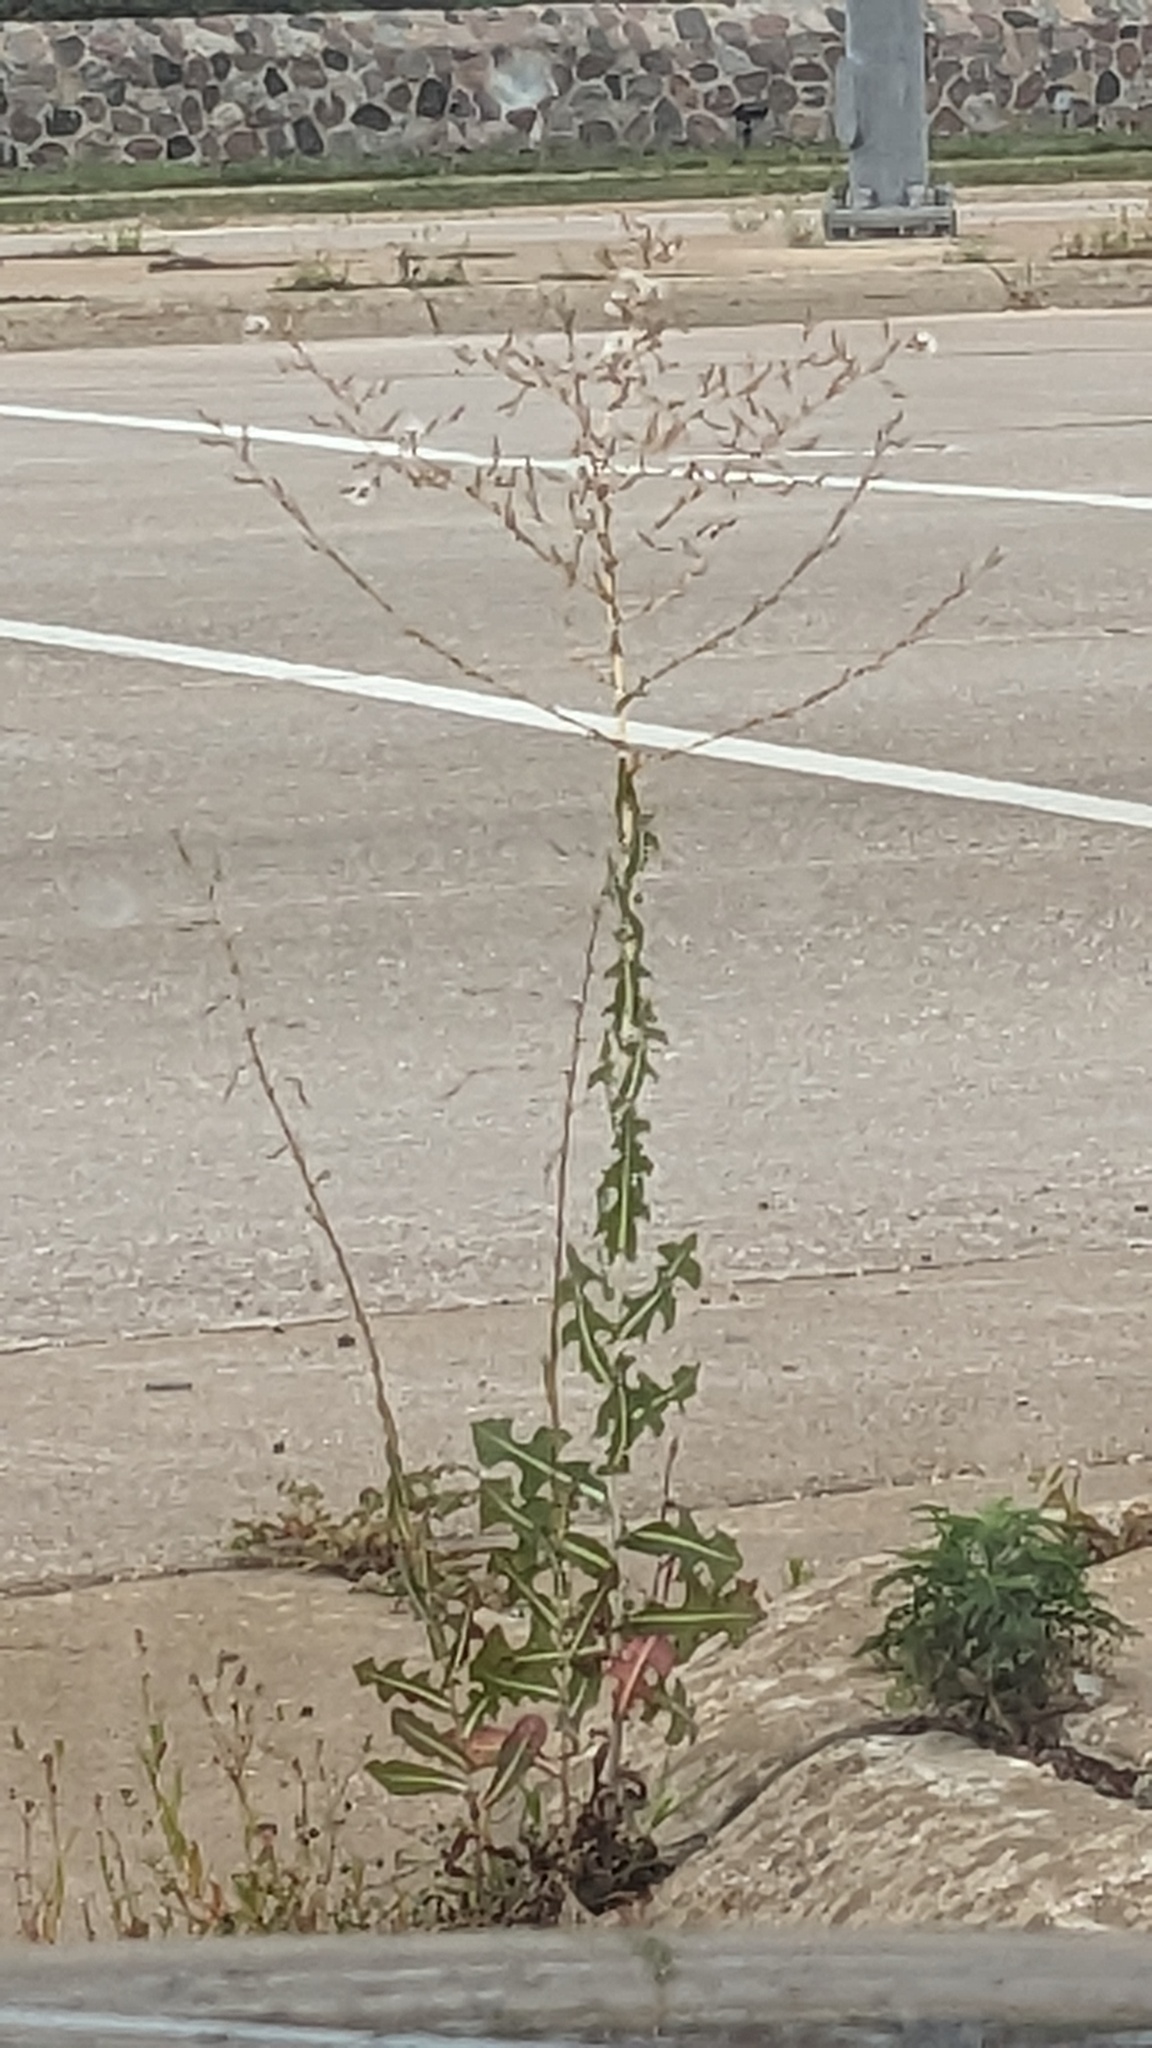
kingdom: Plantae
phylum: Tracheophyta
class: Magnoliopsida
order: Asterales
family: Asteraceae
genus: Lactuca
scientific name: Lactuca serriola
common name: Prickly lettuce
